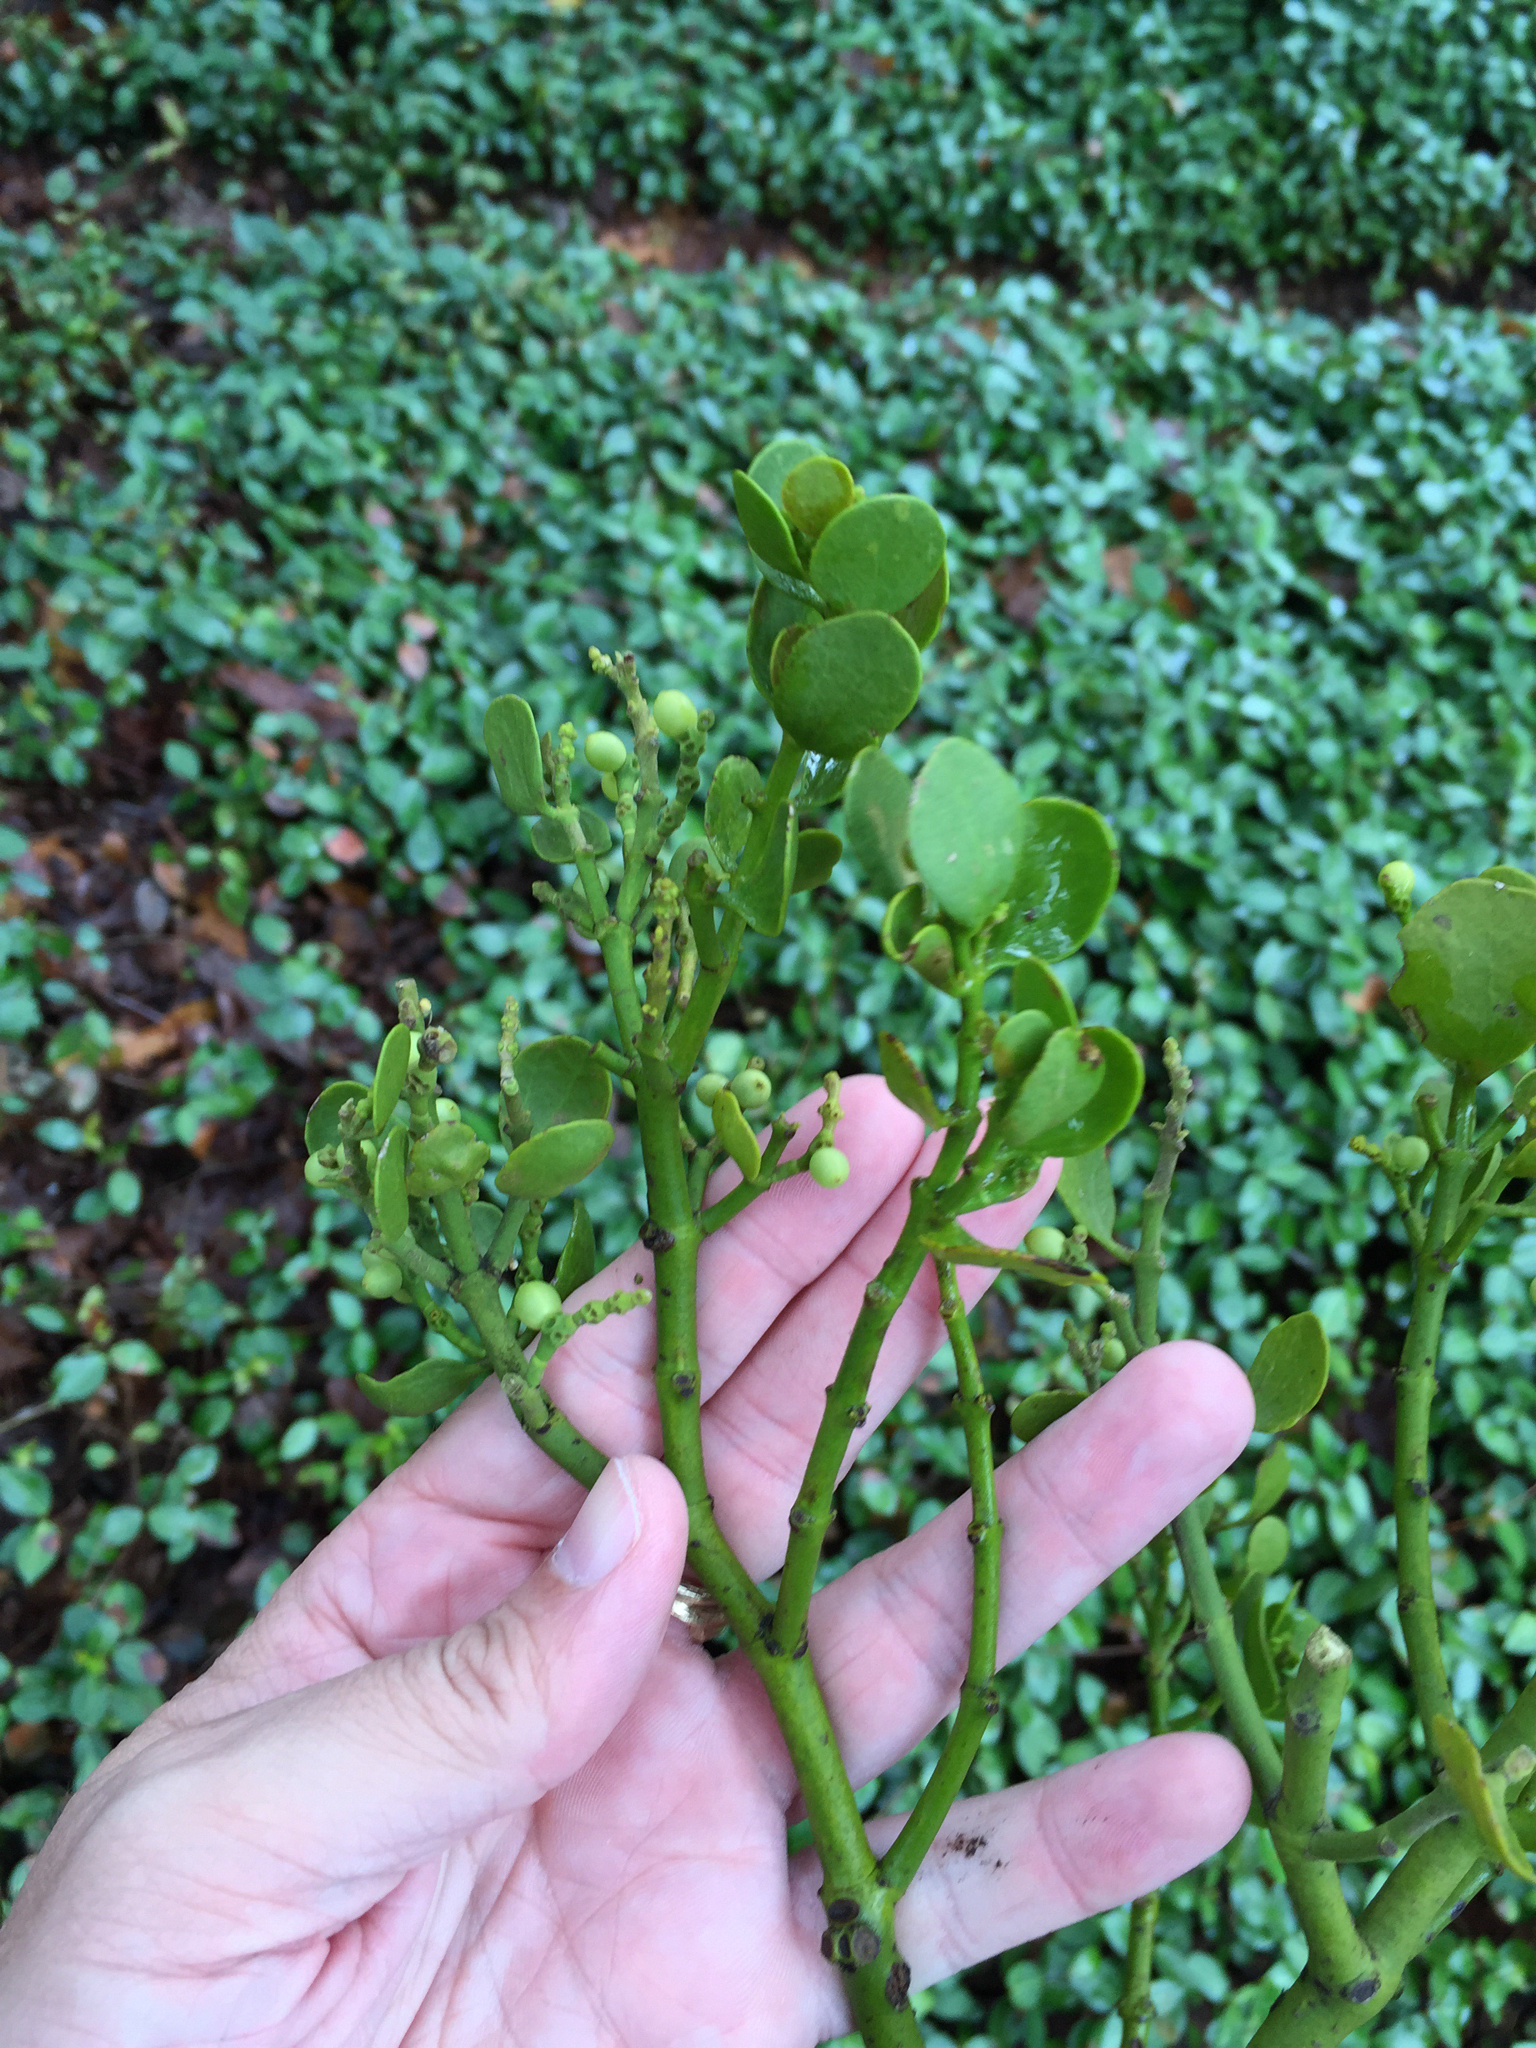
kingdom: Plantae
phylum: Tracheophyta
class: Magnoliopsida
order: Santalales
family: Viscaceae
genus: Phoradendron
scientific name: Phoradendron leucarpum
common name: Pacific mistletoe
